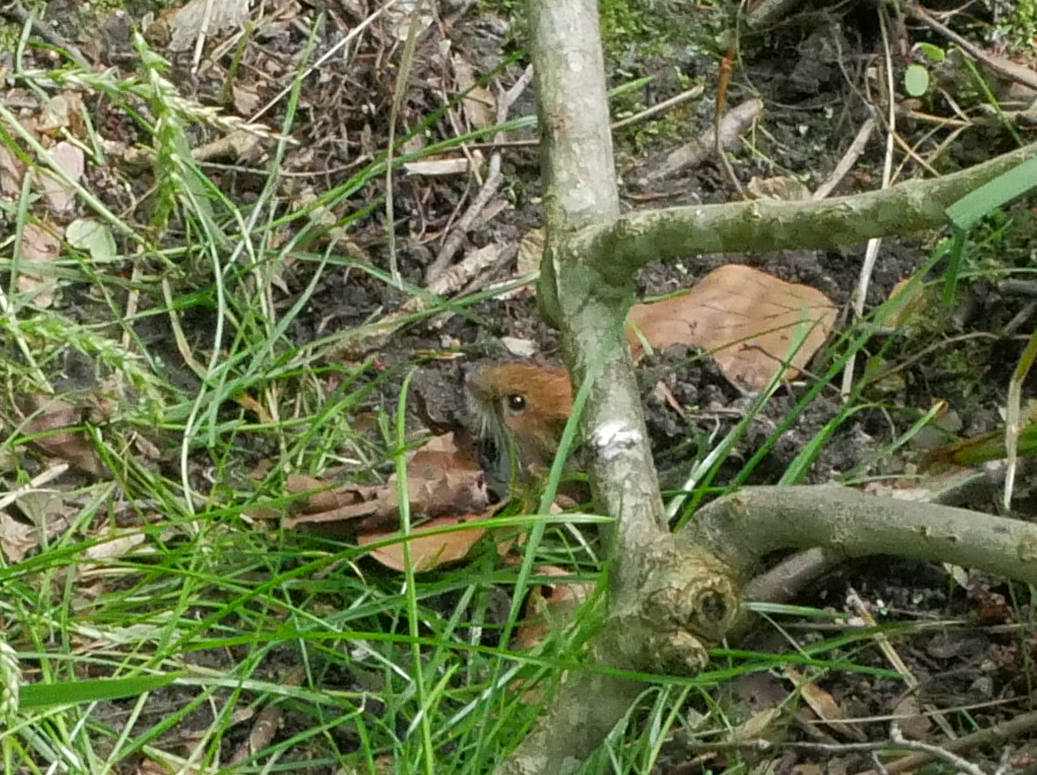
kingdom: Animalia
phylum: Chordata
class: Mammalia
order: Rodentia
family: Cricetidae
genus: Myodes
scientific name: Myodes glareolus
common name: Bank vole
